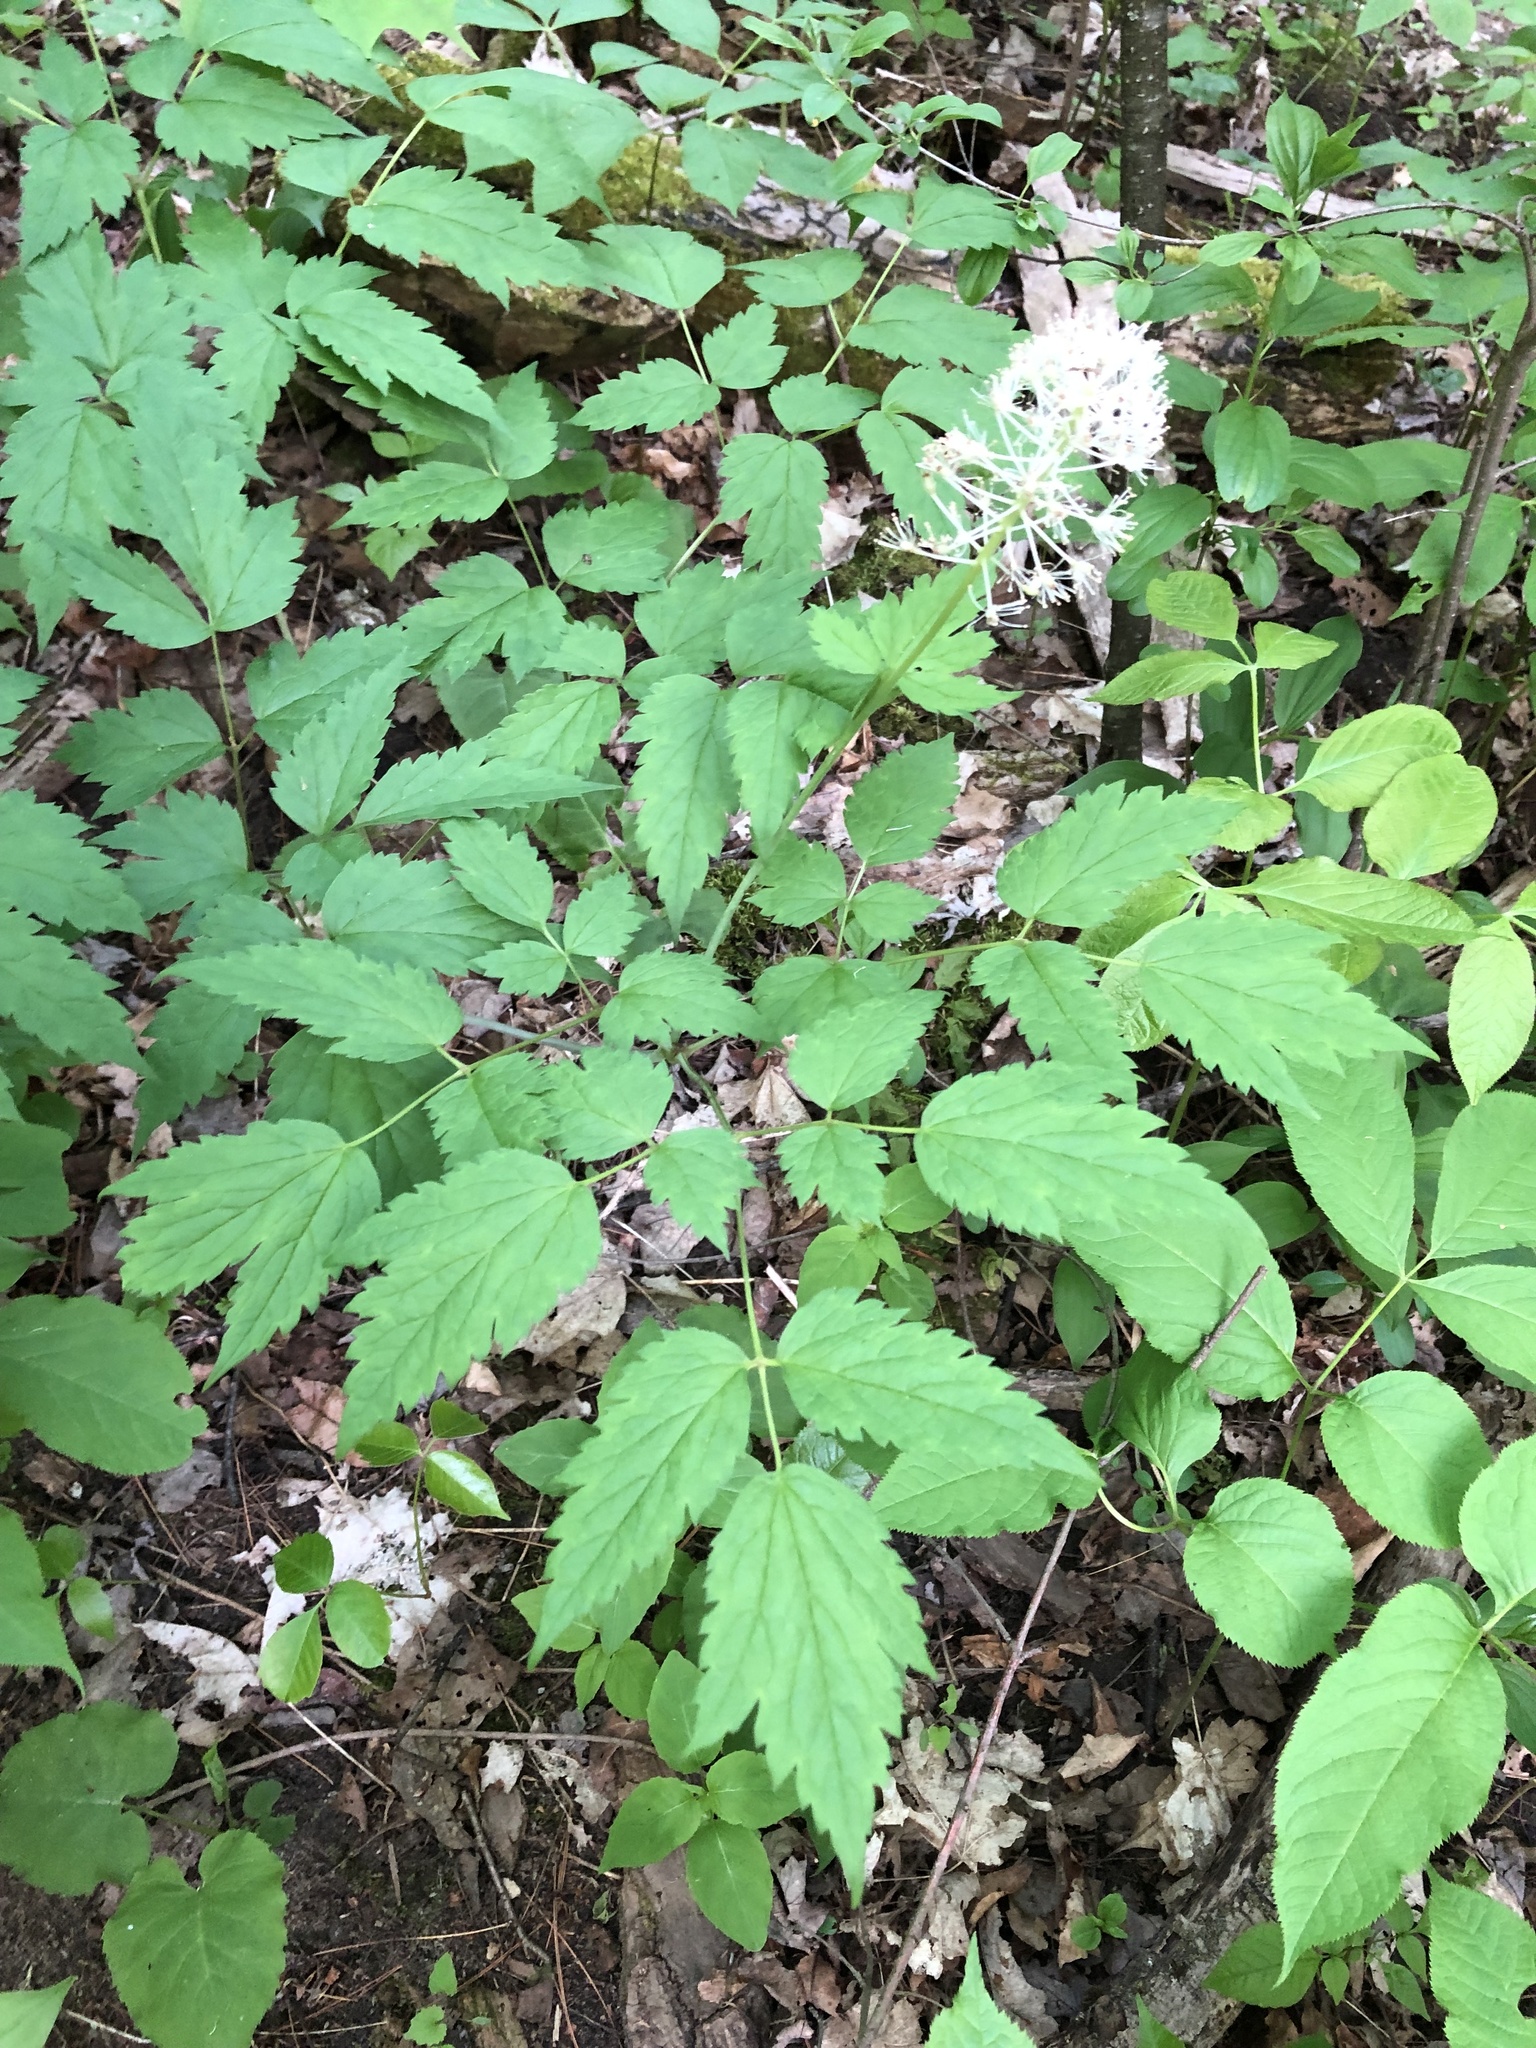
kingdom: Plantae
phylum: Tracheophyta
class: Magnoliopsida
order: Ranunculales
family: Ranunculaceae
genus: Actaea
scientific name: Actaea pachypoda
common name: Doll's-eyes
